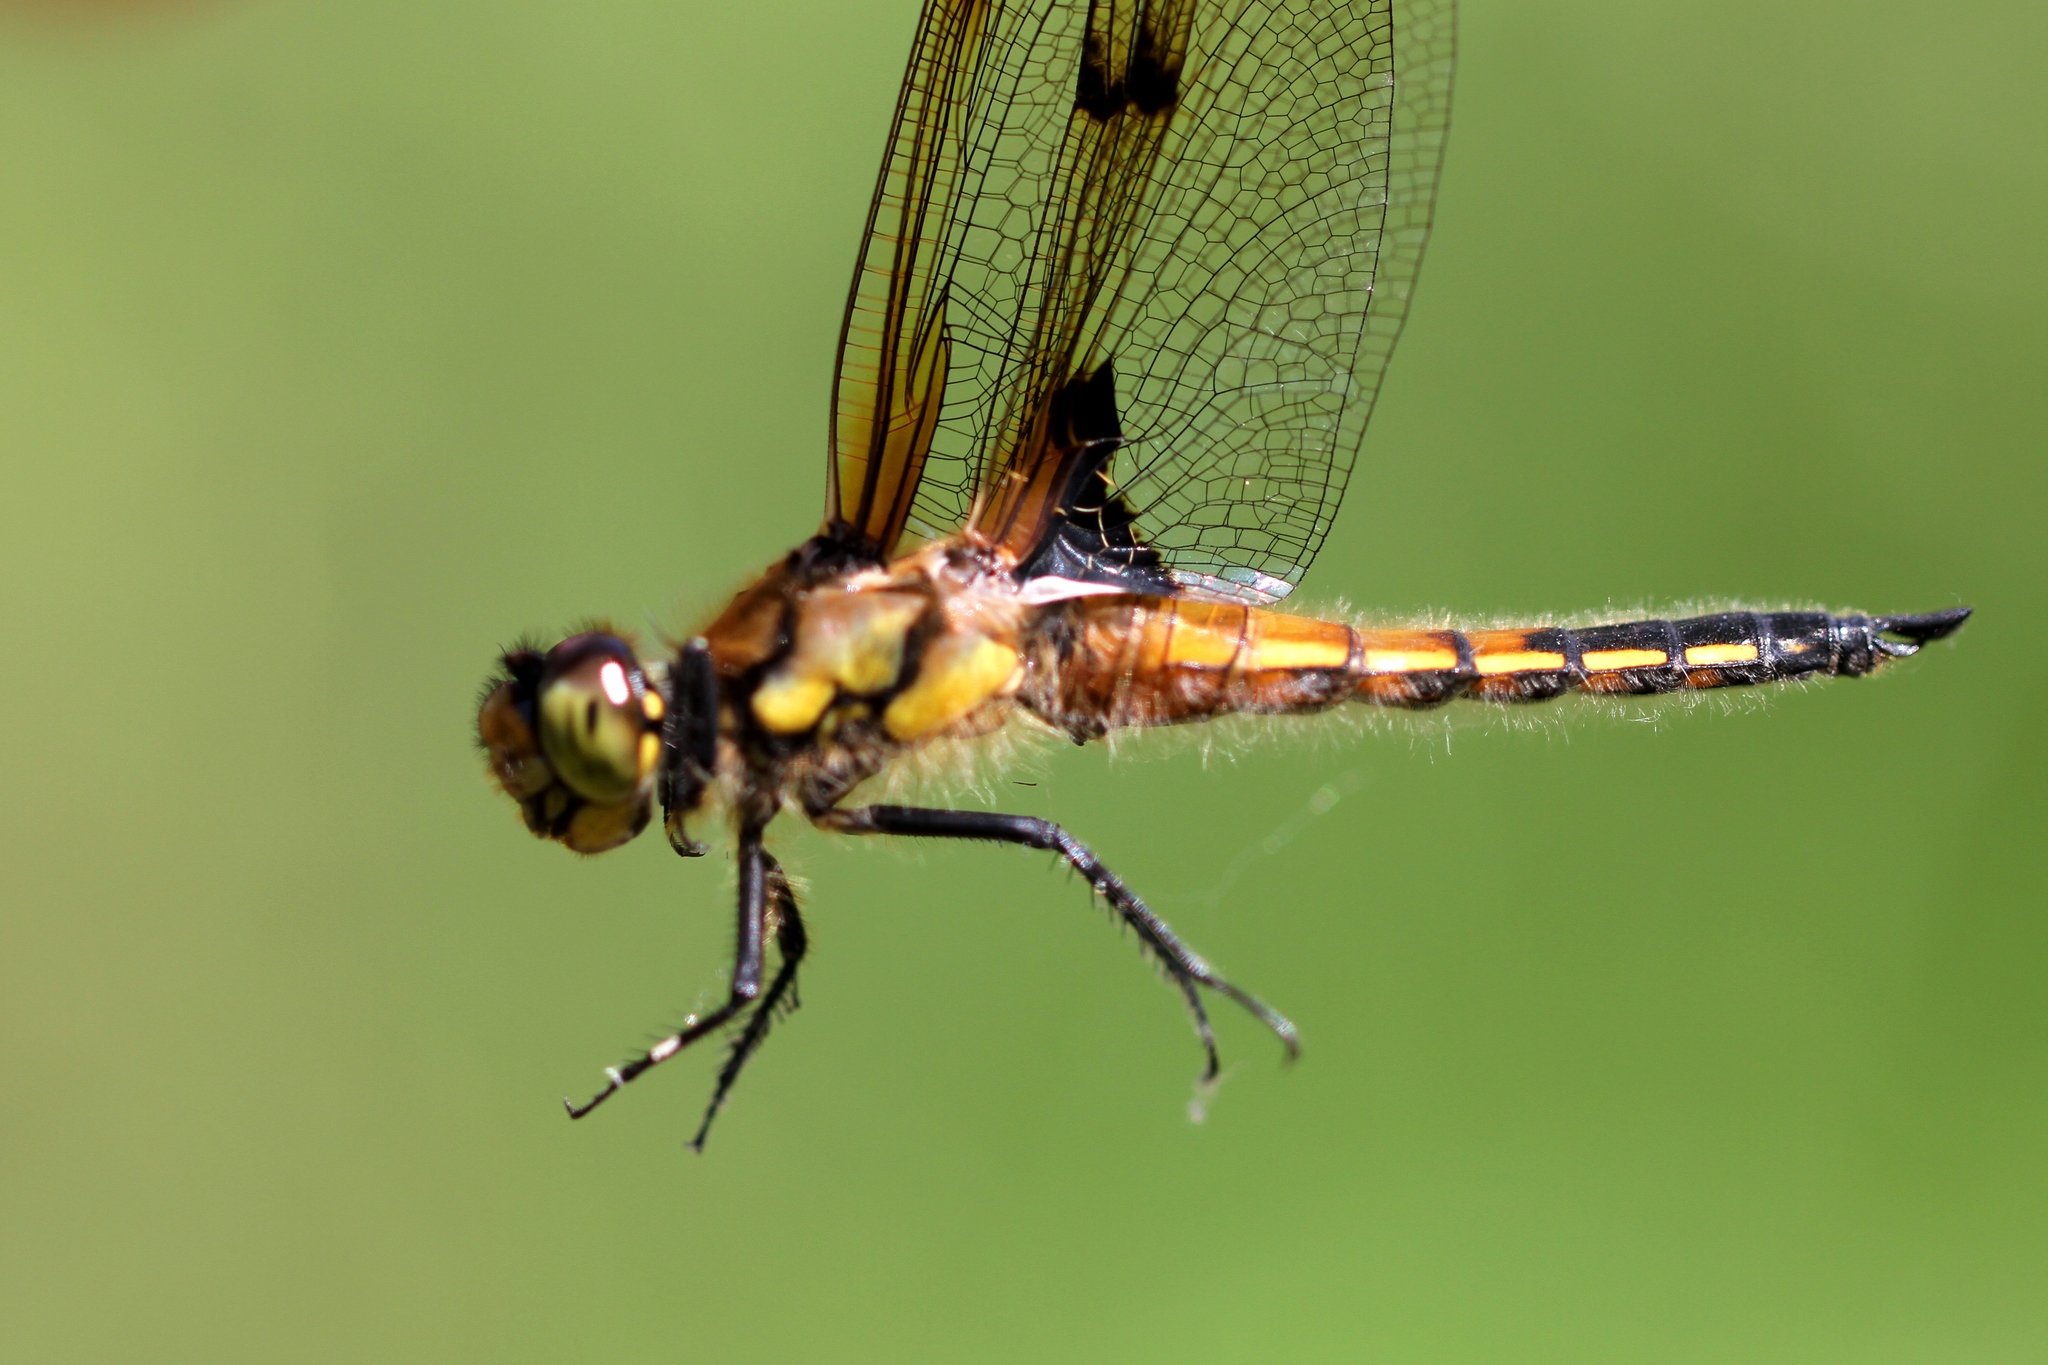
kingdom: Animalia
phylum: Arthropoda
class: Insecta
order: Odonata
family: Libellulidae
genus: Libellula
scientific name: Libellula quadrimaculata
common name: Four-spotted chaser
